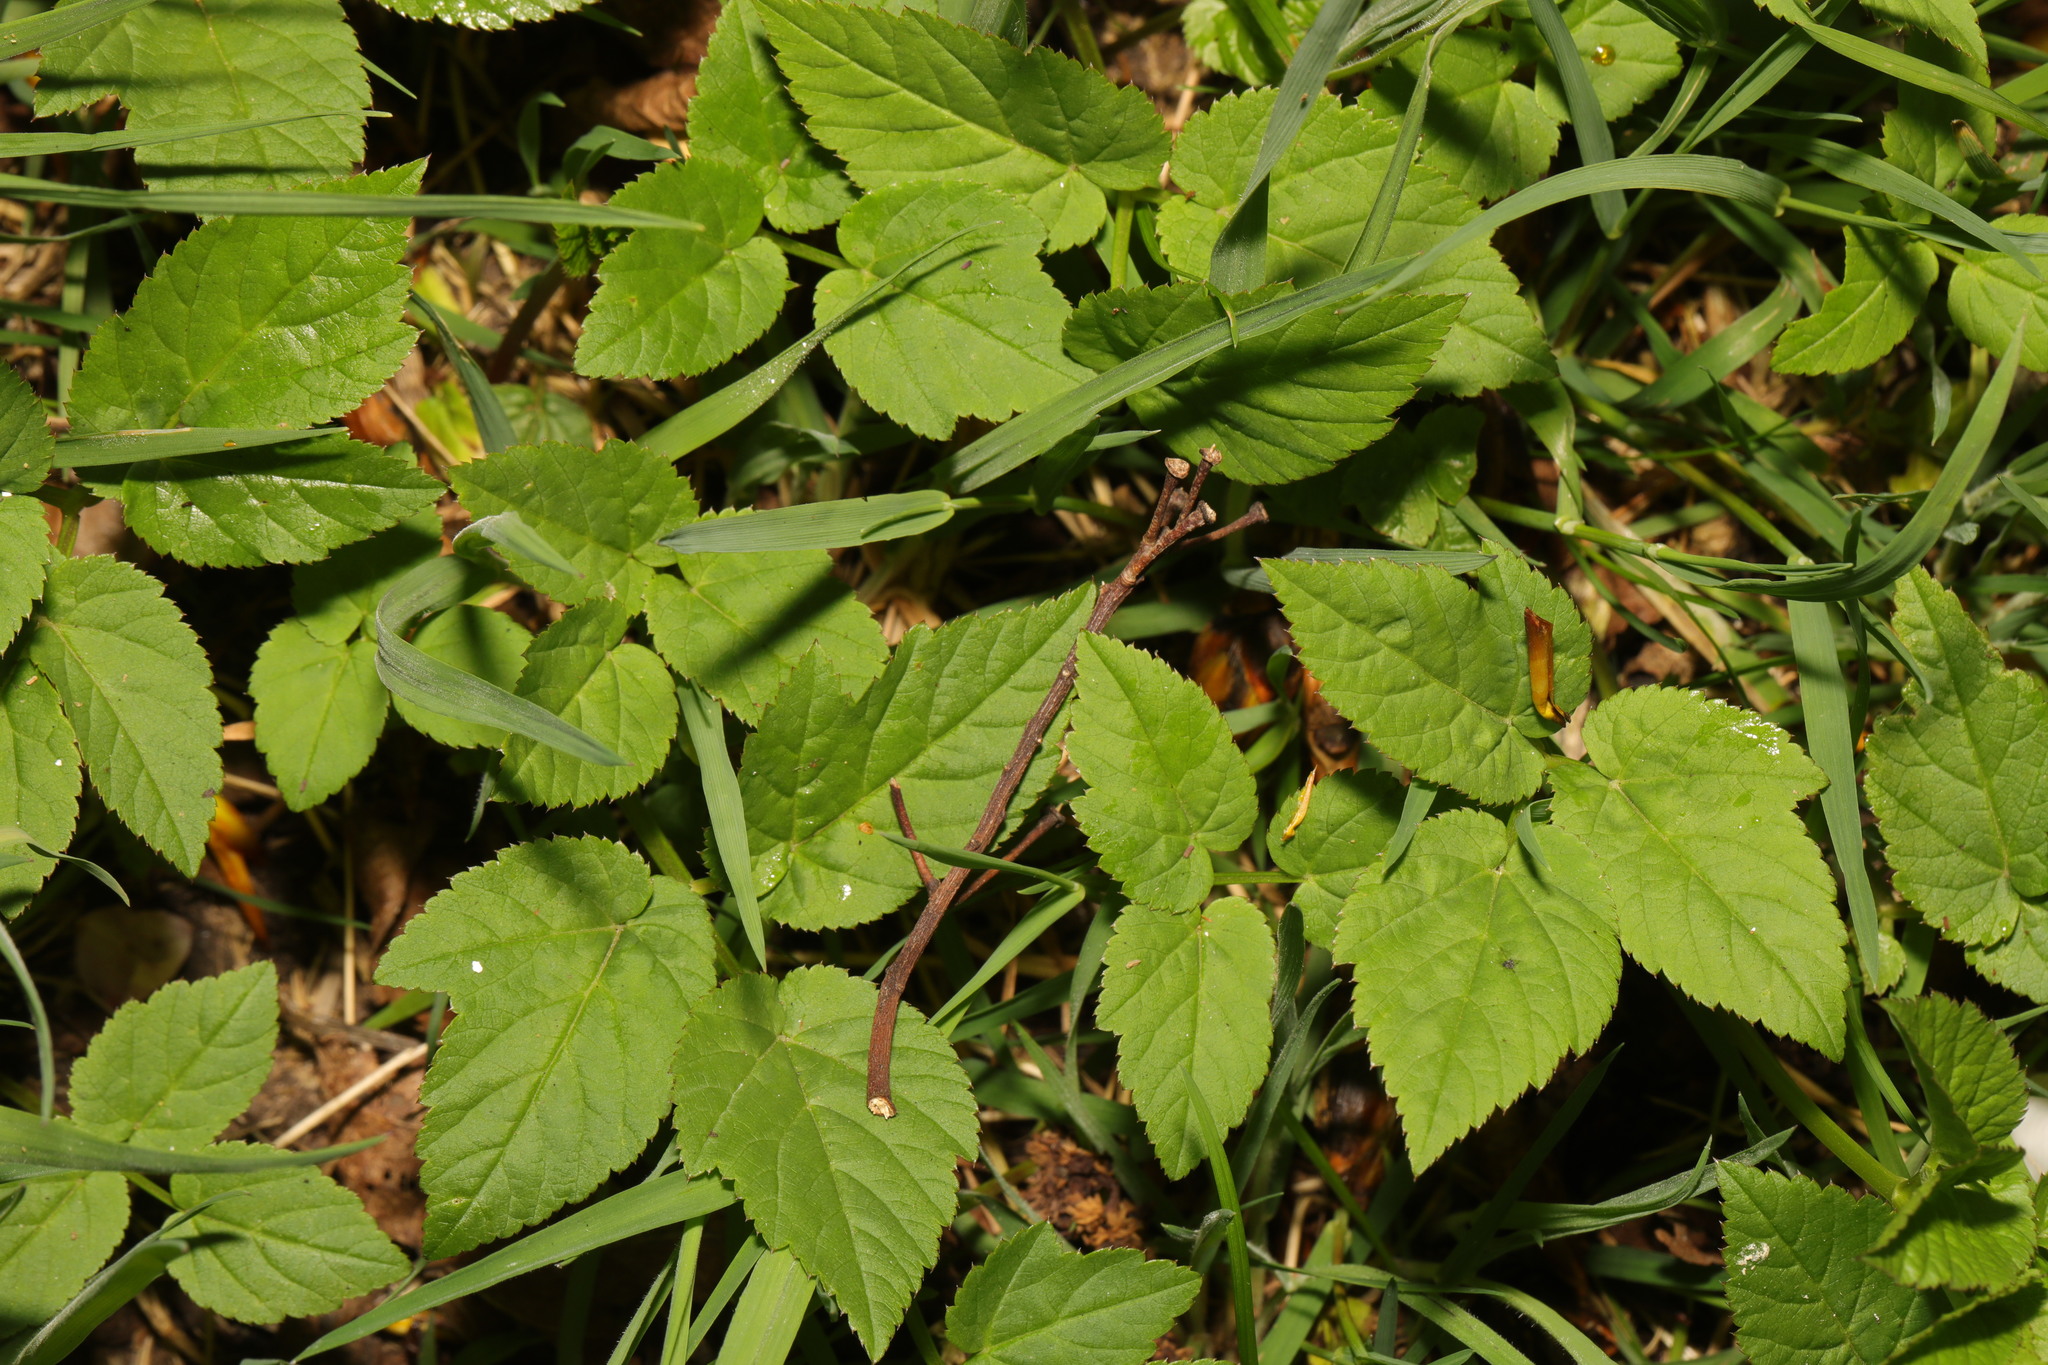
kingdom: Plantae
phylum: Tracheophyta
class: Magnoliopsida
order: Apiales
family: Apiaceae
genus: Aegopodium
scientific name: Aegopodium podagraria
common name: Ground-elder
